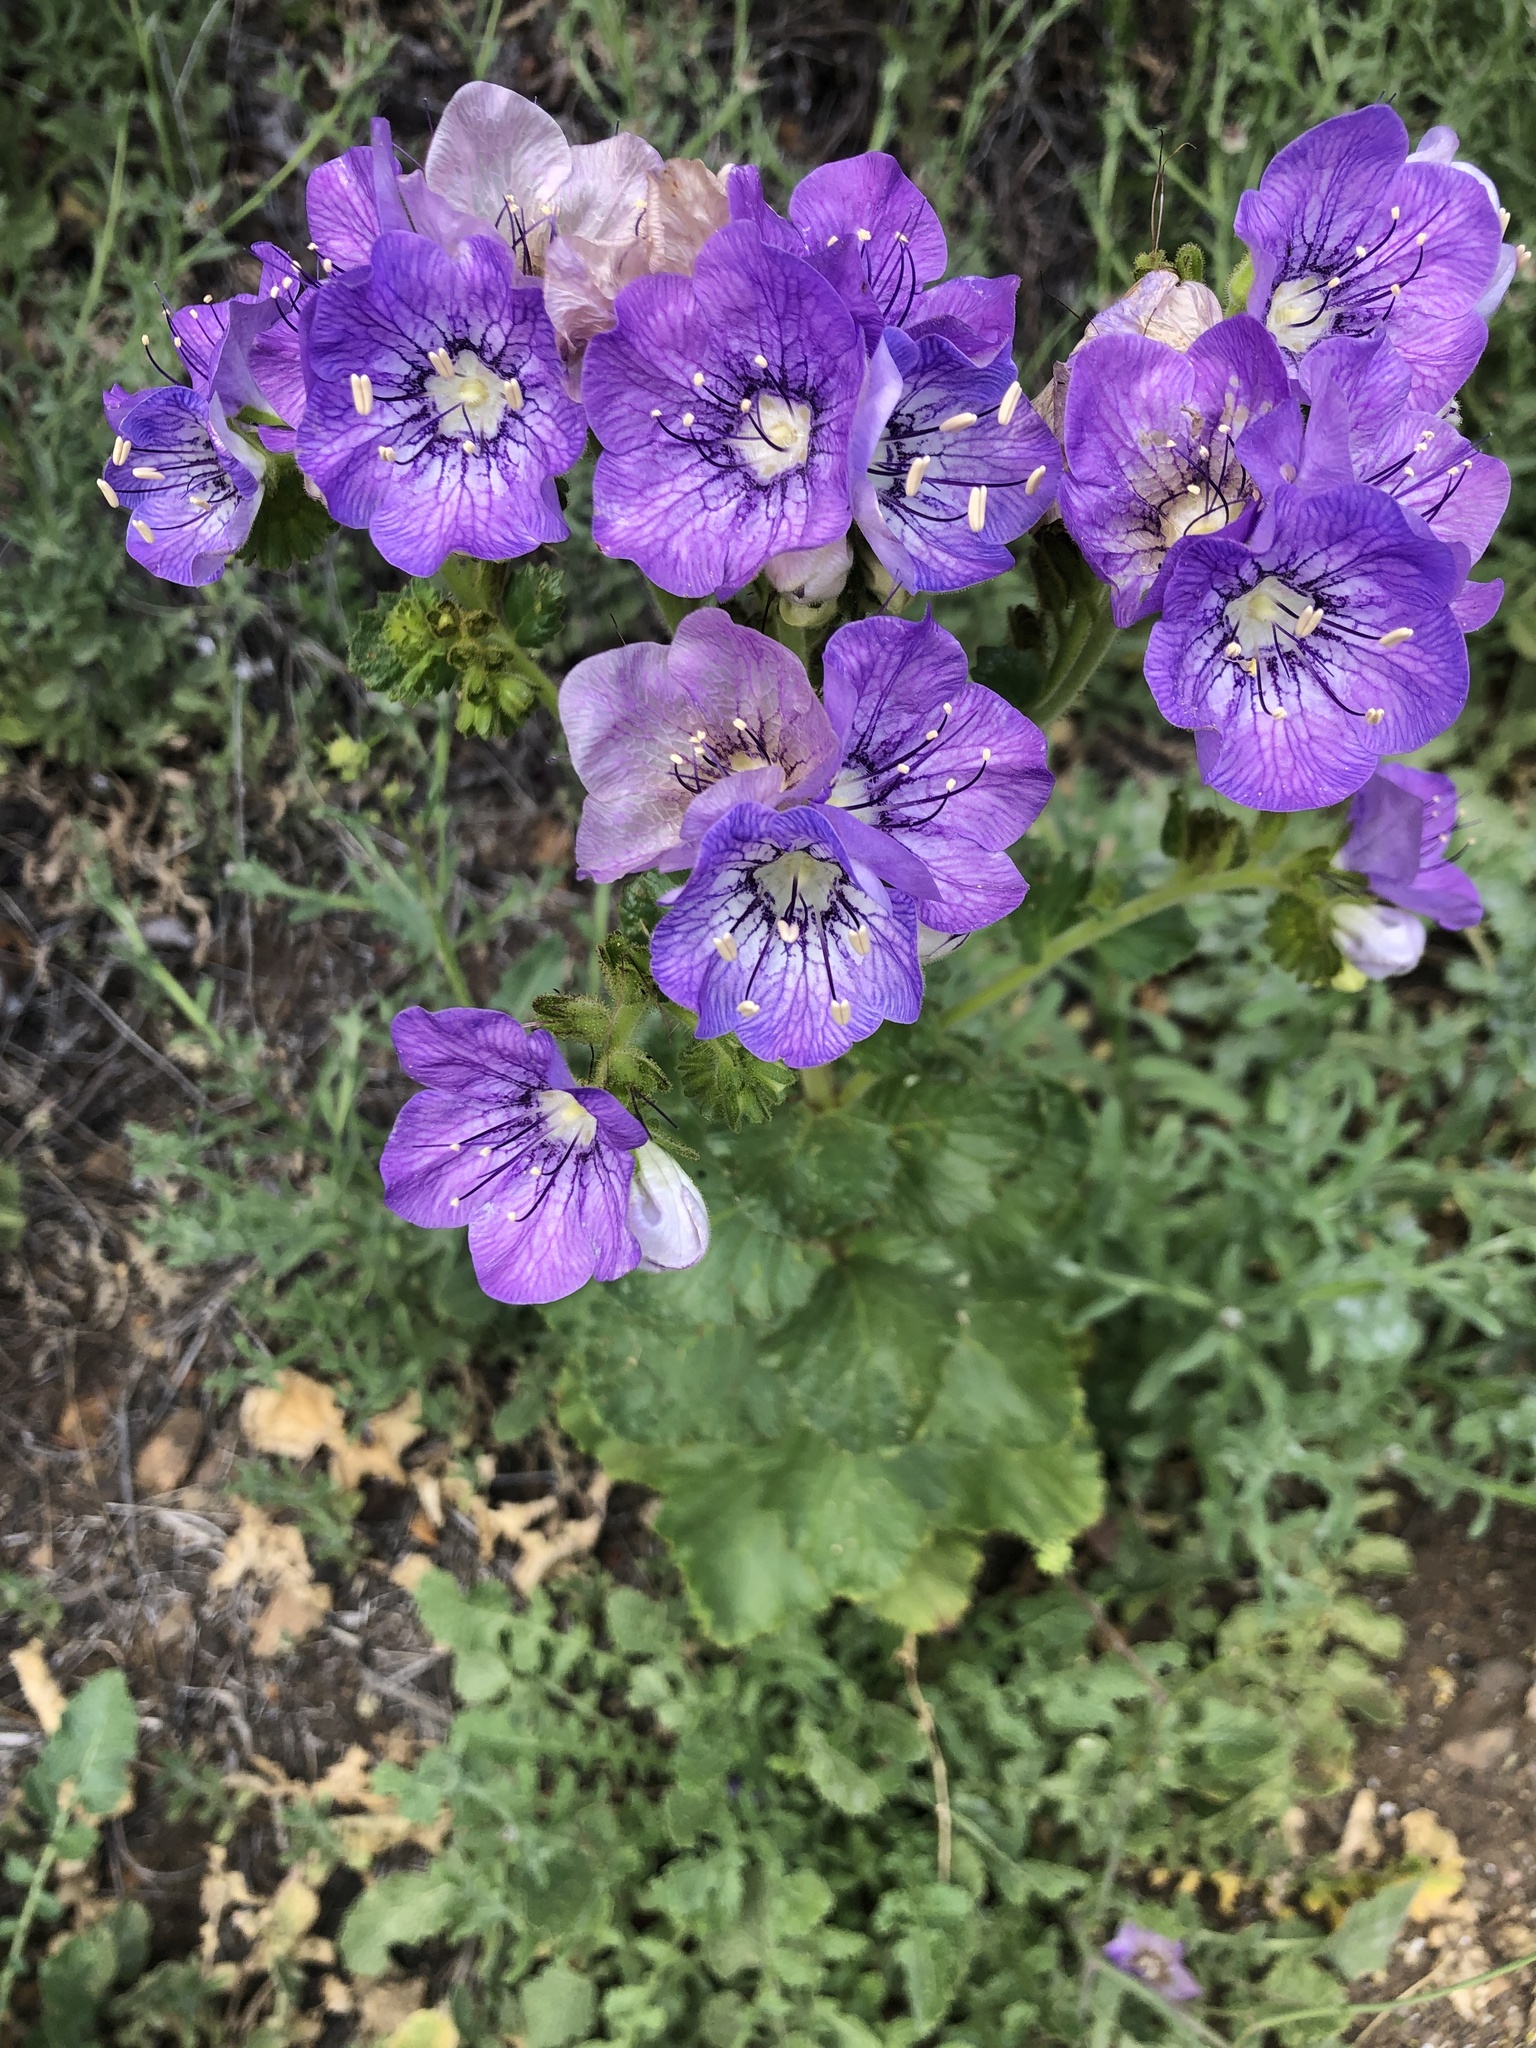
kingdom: Plantae
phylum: Tracheophyta
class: Magnoliopsida
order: Boraginales
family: Hydrophyllaceae
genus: Phacelia
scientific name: Phacelia grandiflora
